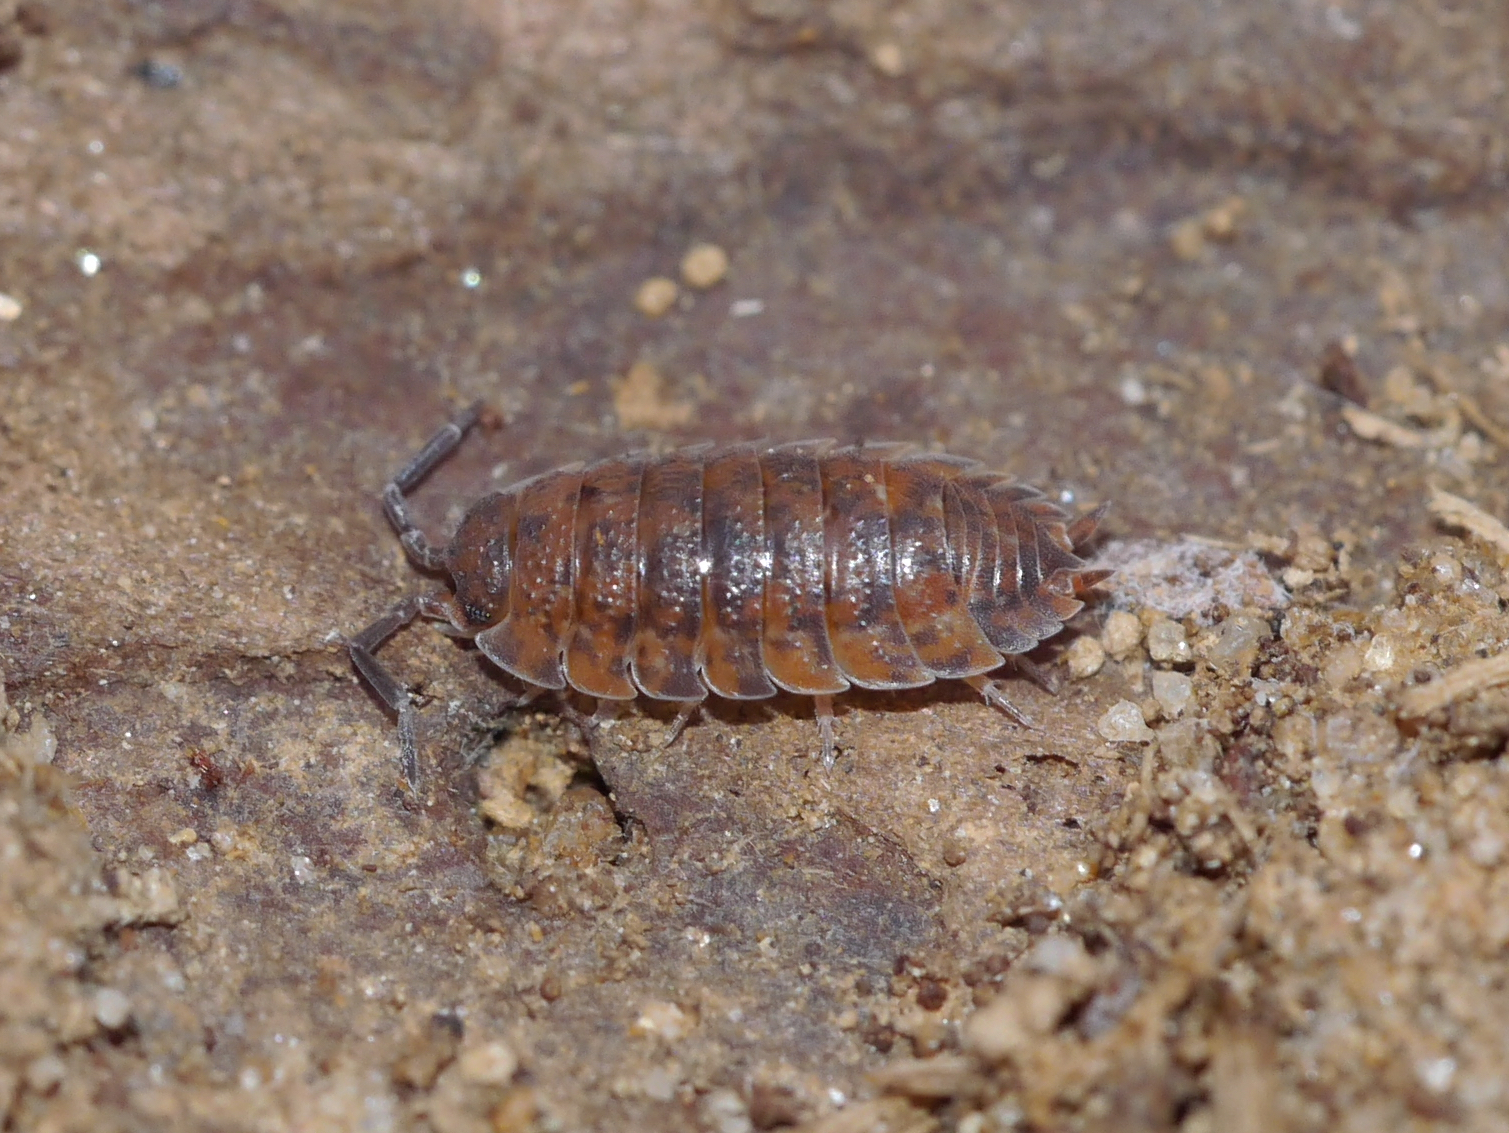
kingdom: Animalia
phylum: Arthropoda
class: Malacostraca
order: Isopoda
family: Porcellionidae
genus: Porcellio
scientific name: Porcellio scaber
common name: Common rough woodlouse
